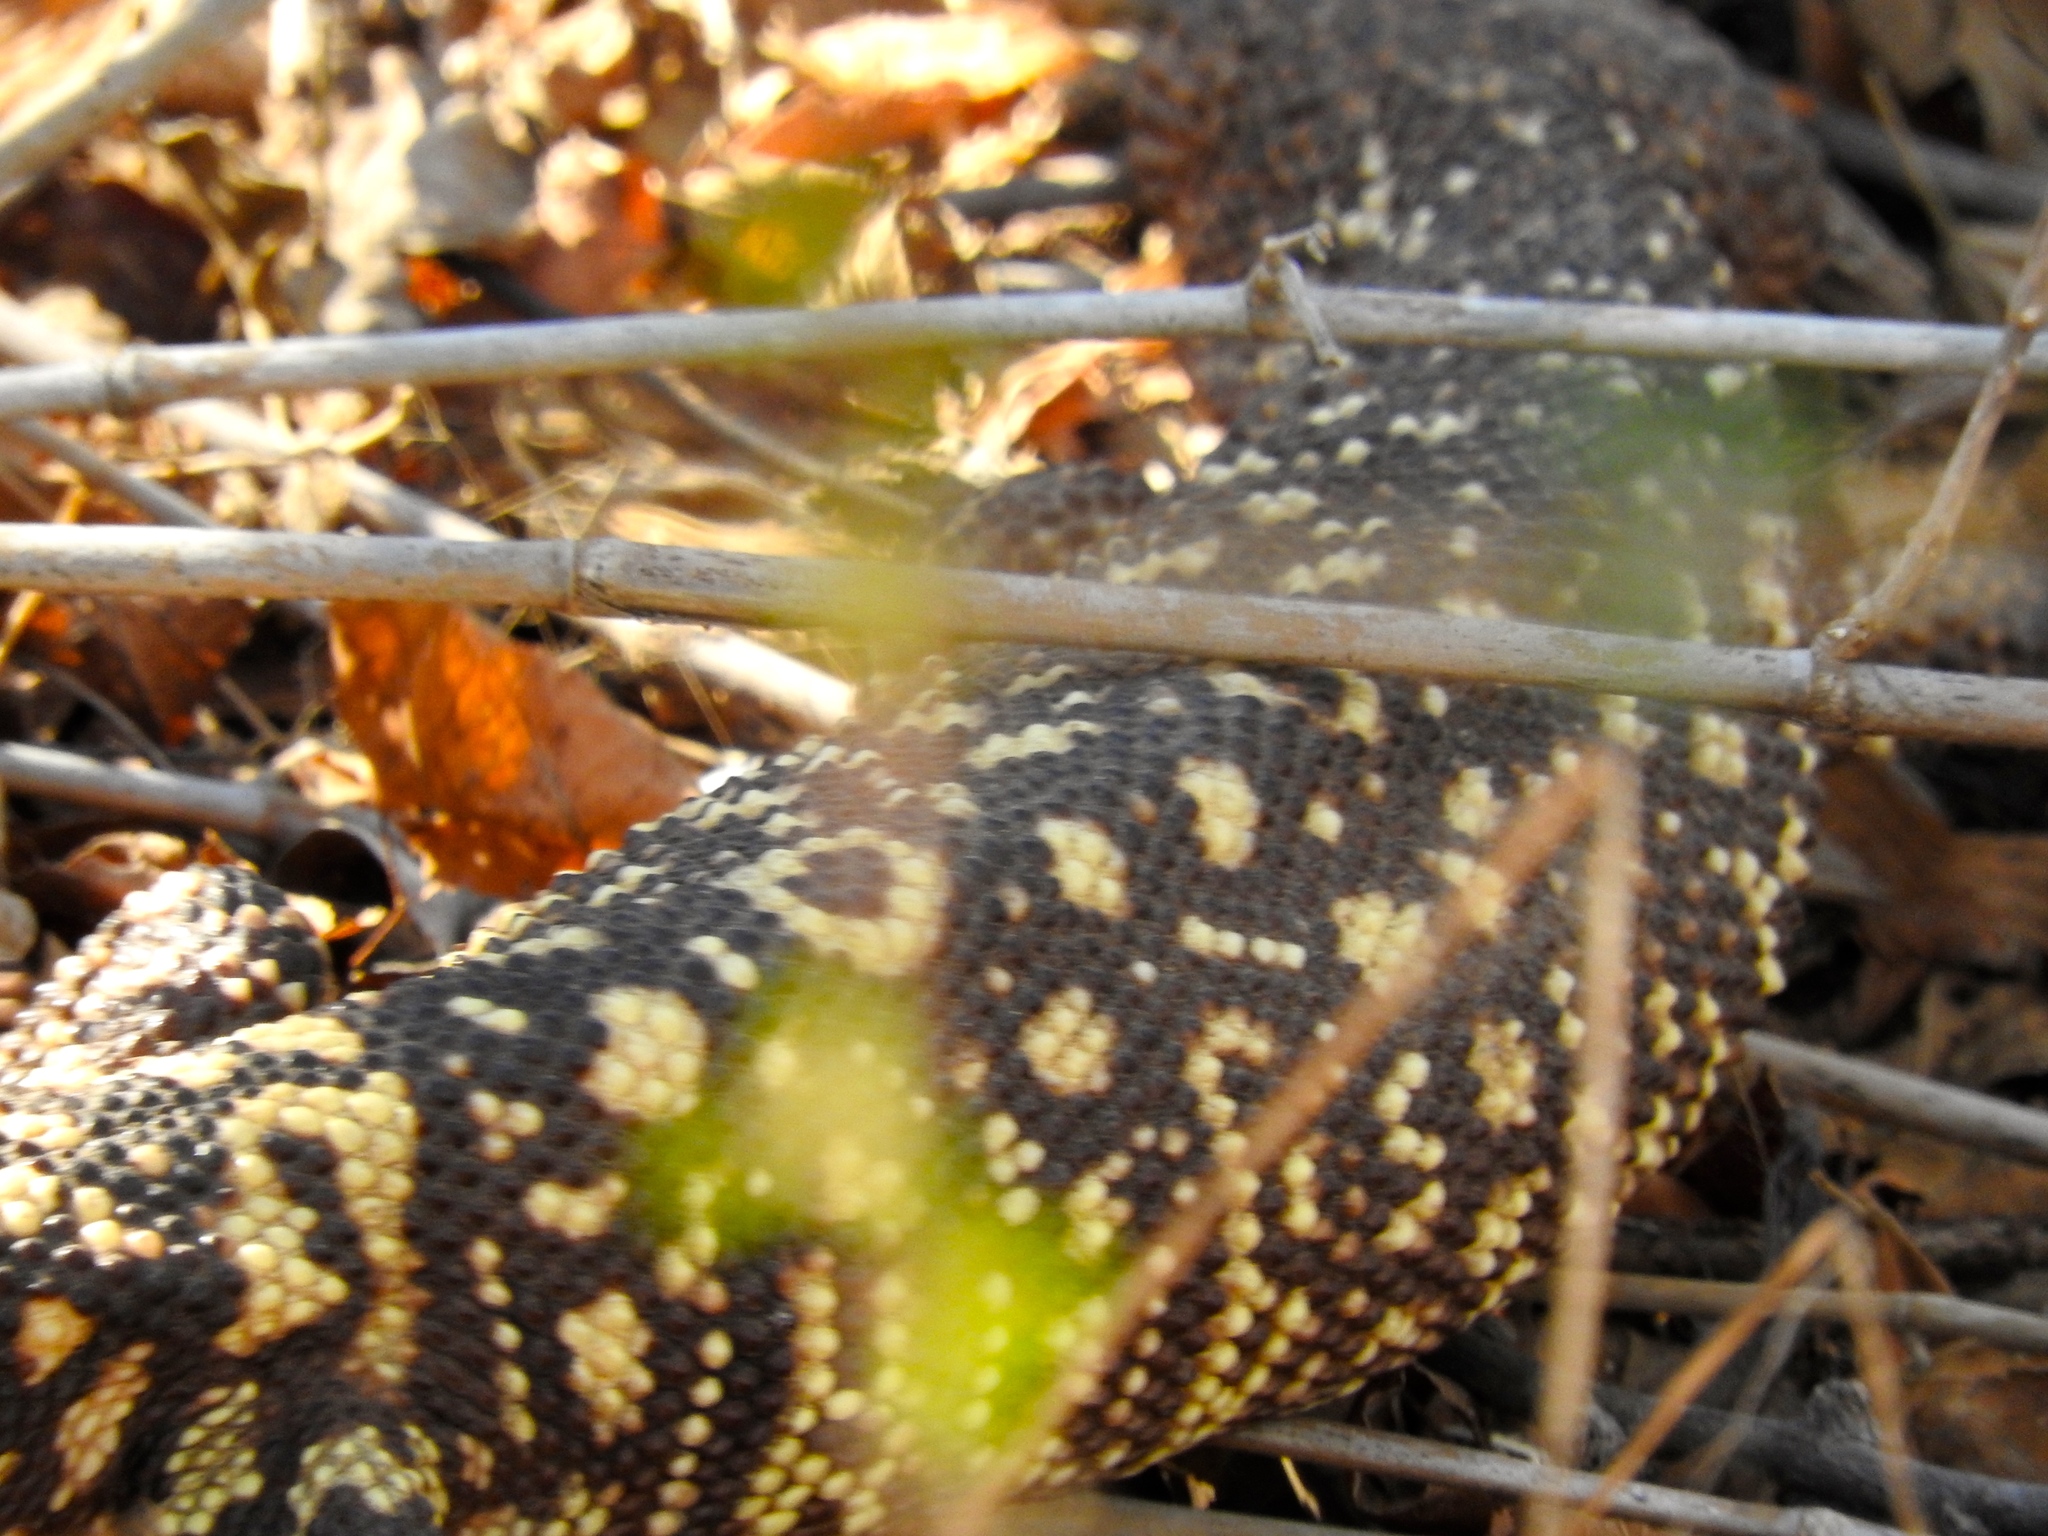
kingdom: Animalia
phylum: Chordata
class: Squamata
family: Helodermatidae
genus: Heloderma
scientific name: Heloderma horridum
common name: Mexican beaded lizard
